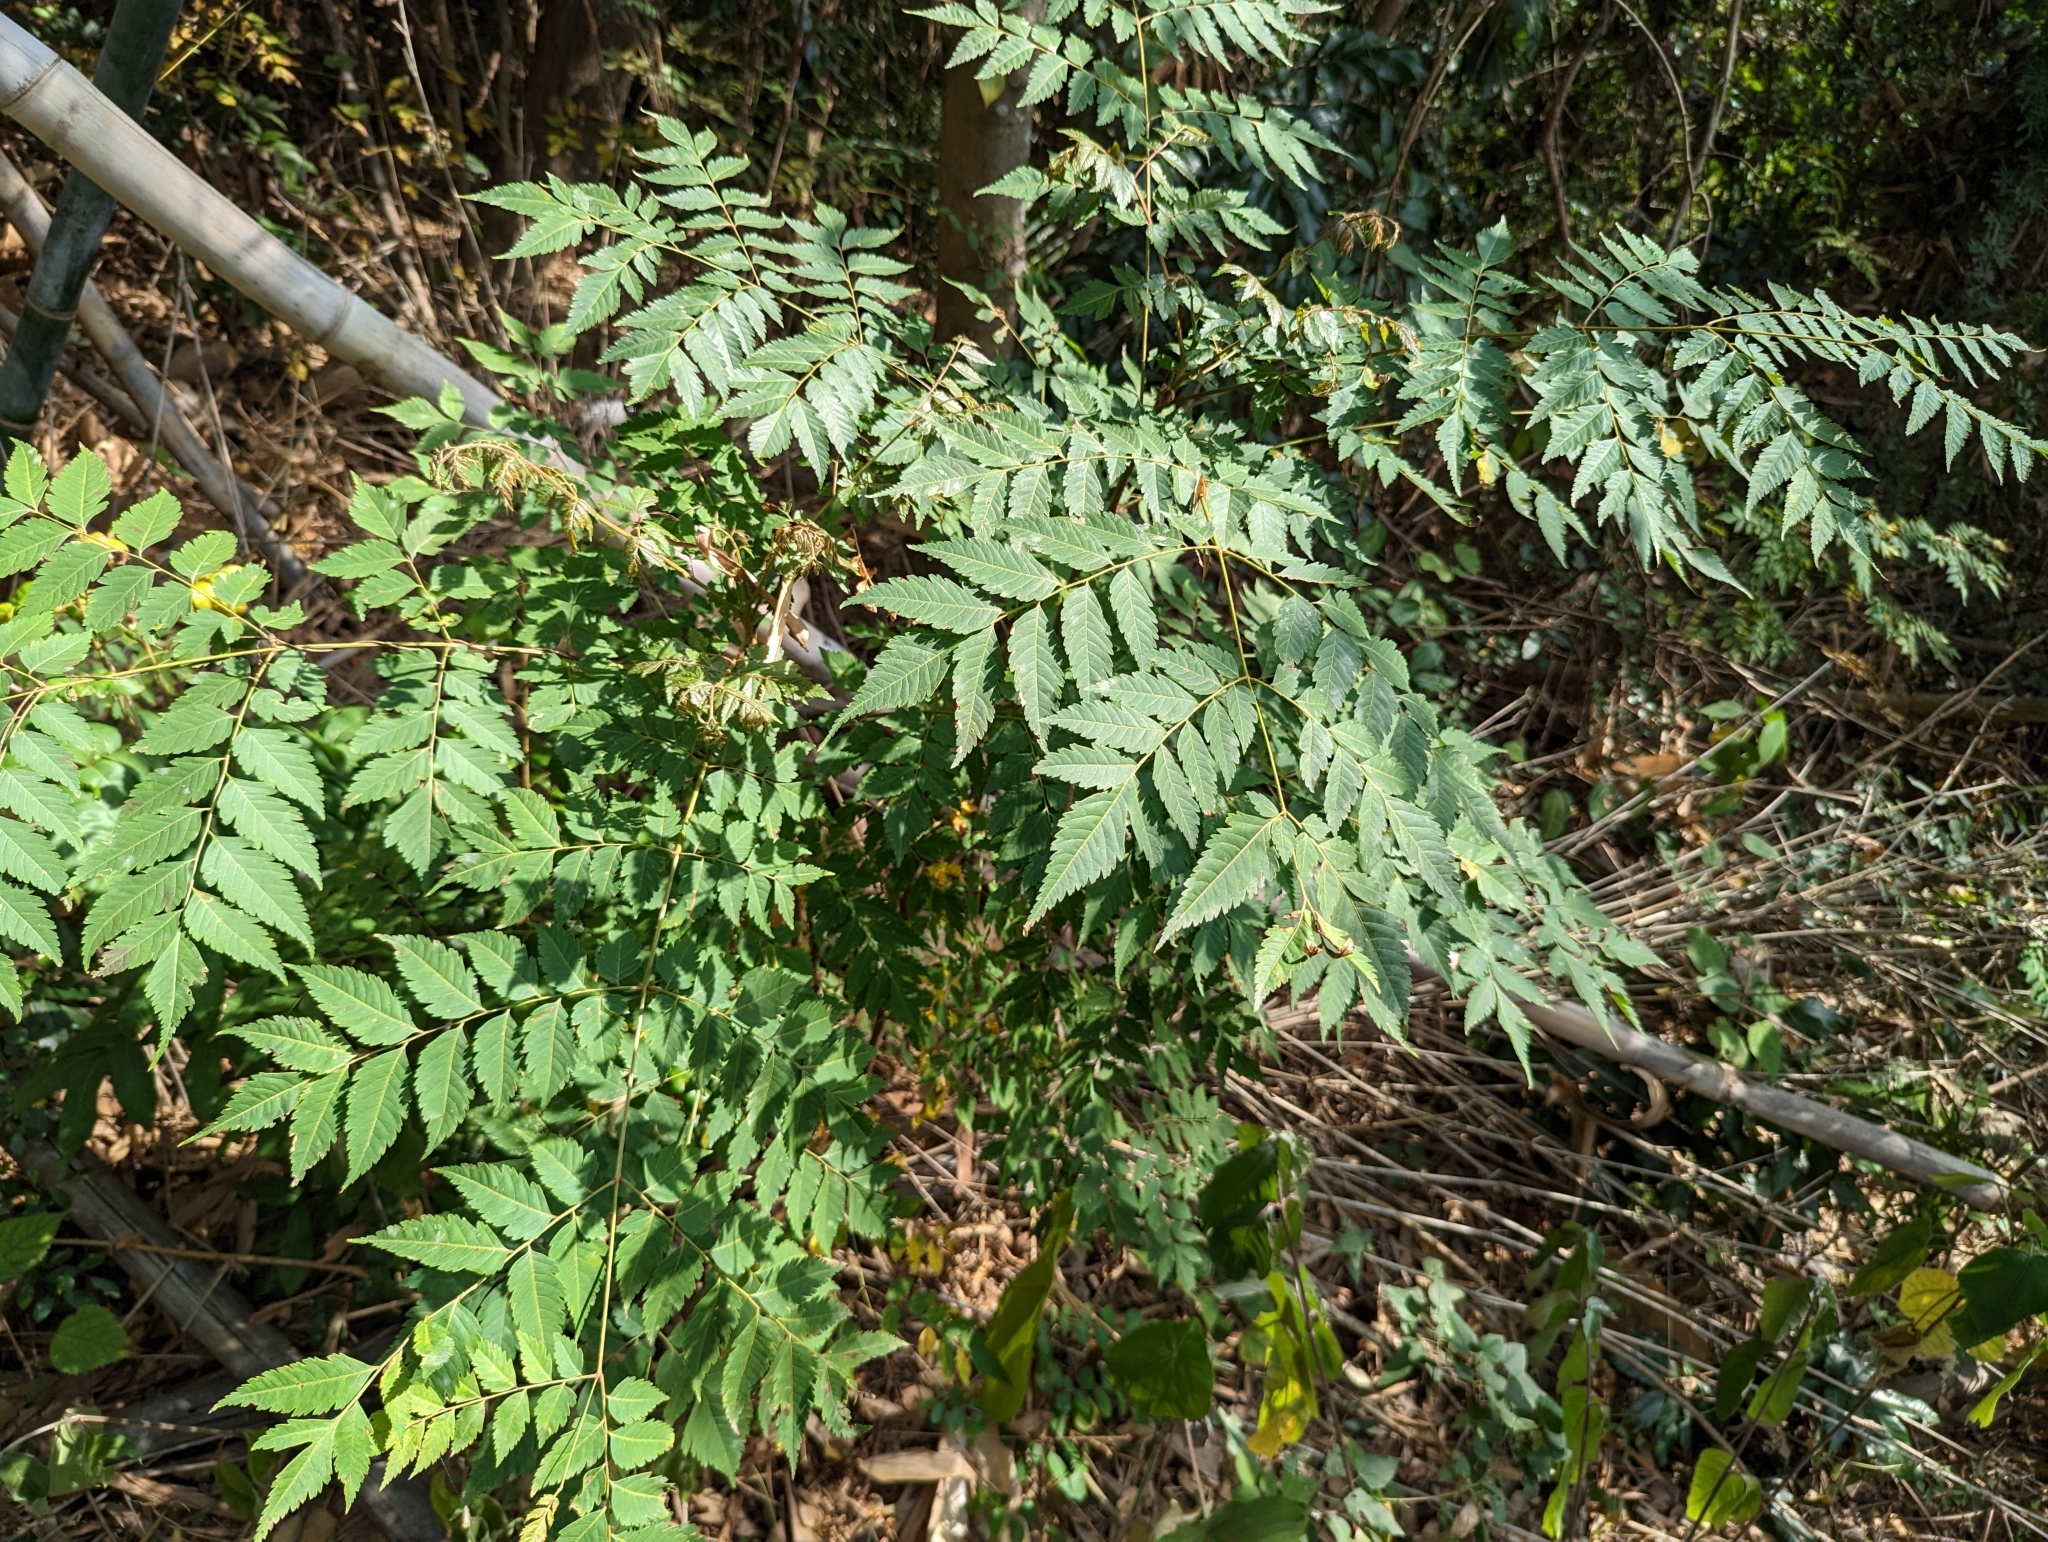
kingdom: Plantae
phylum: Tracheophyta
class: Magnoliopsida
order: Sapindales
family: Sapindaceae
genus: Koelreuteria
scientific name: Koelreuteria elegans
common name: Chinese flame tree
